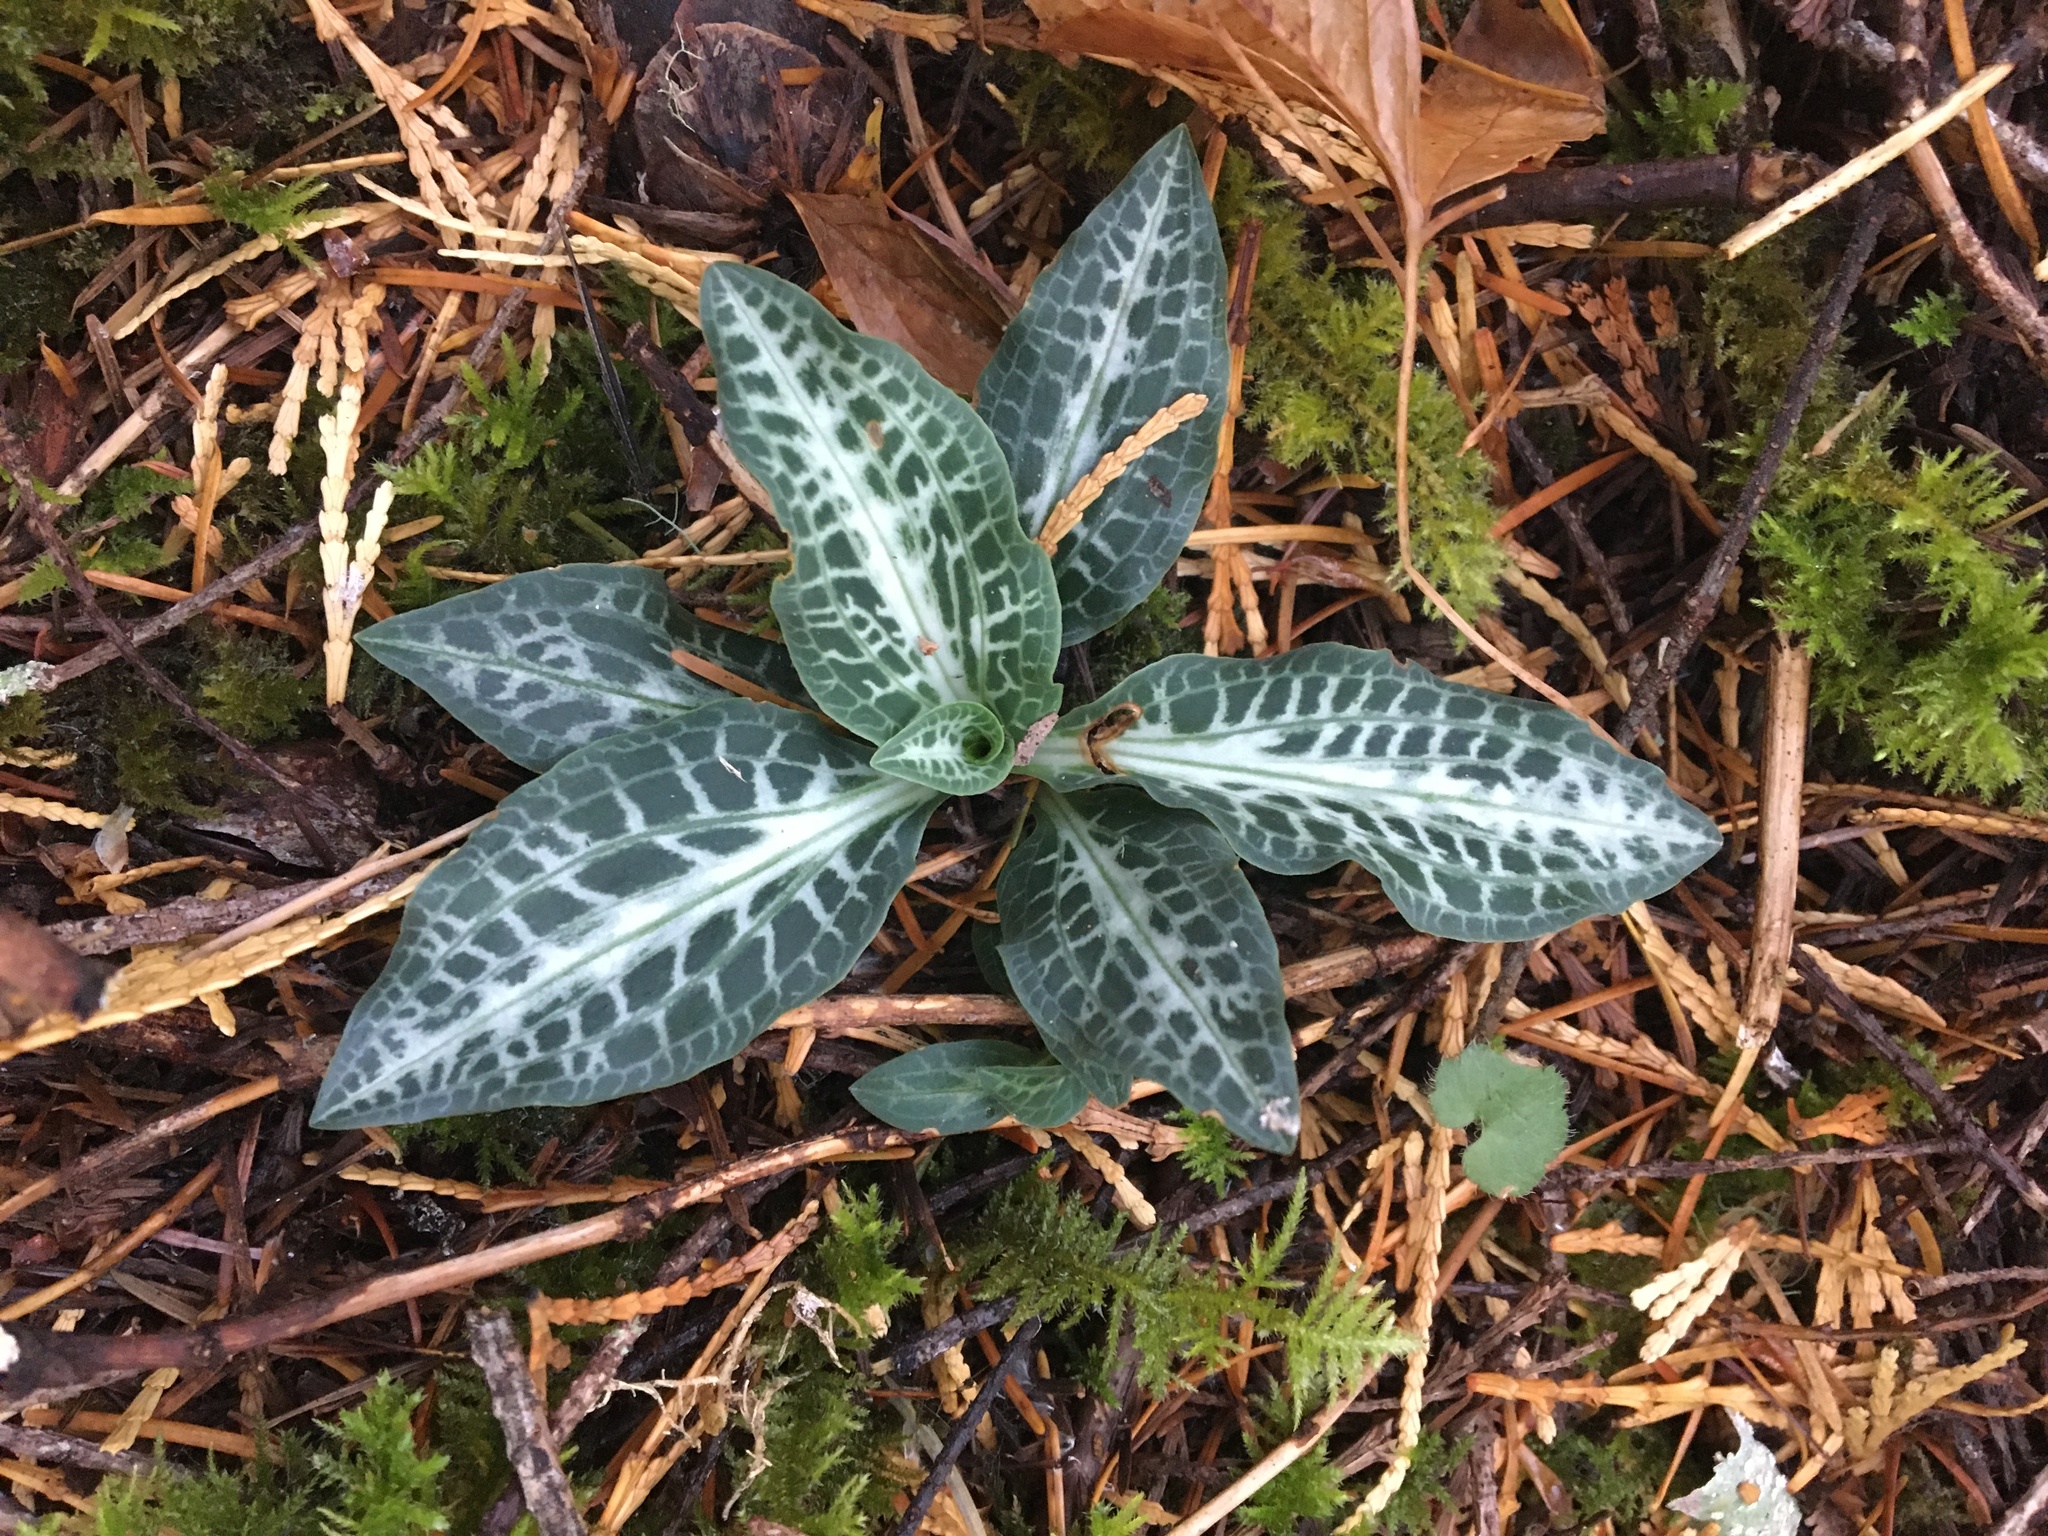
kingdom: Plantae
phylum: Tracheophyta
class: Liliopsida
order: Asparagales
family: Orchidaceae
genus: Goodyera
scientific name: Goodyera oblongifolia
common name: Giant rattlesnake-plantain
